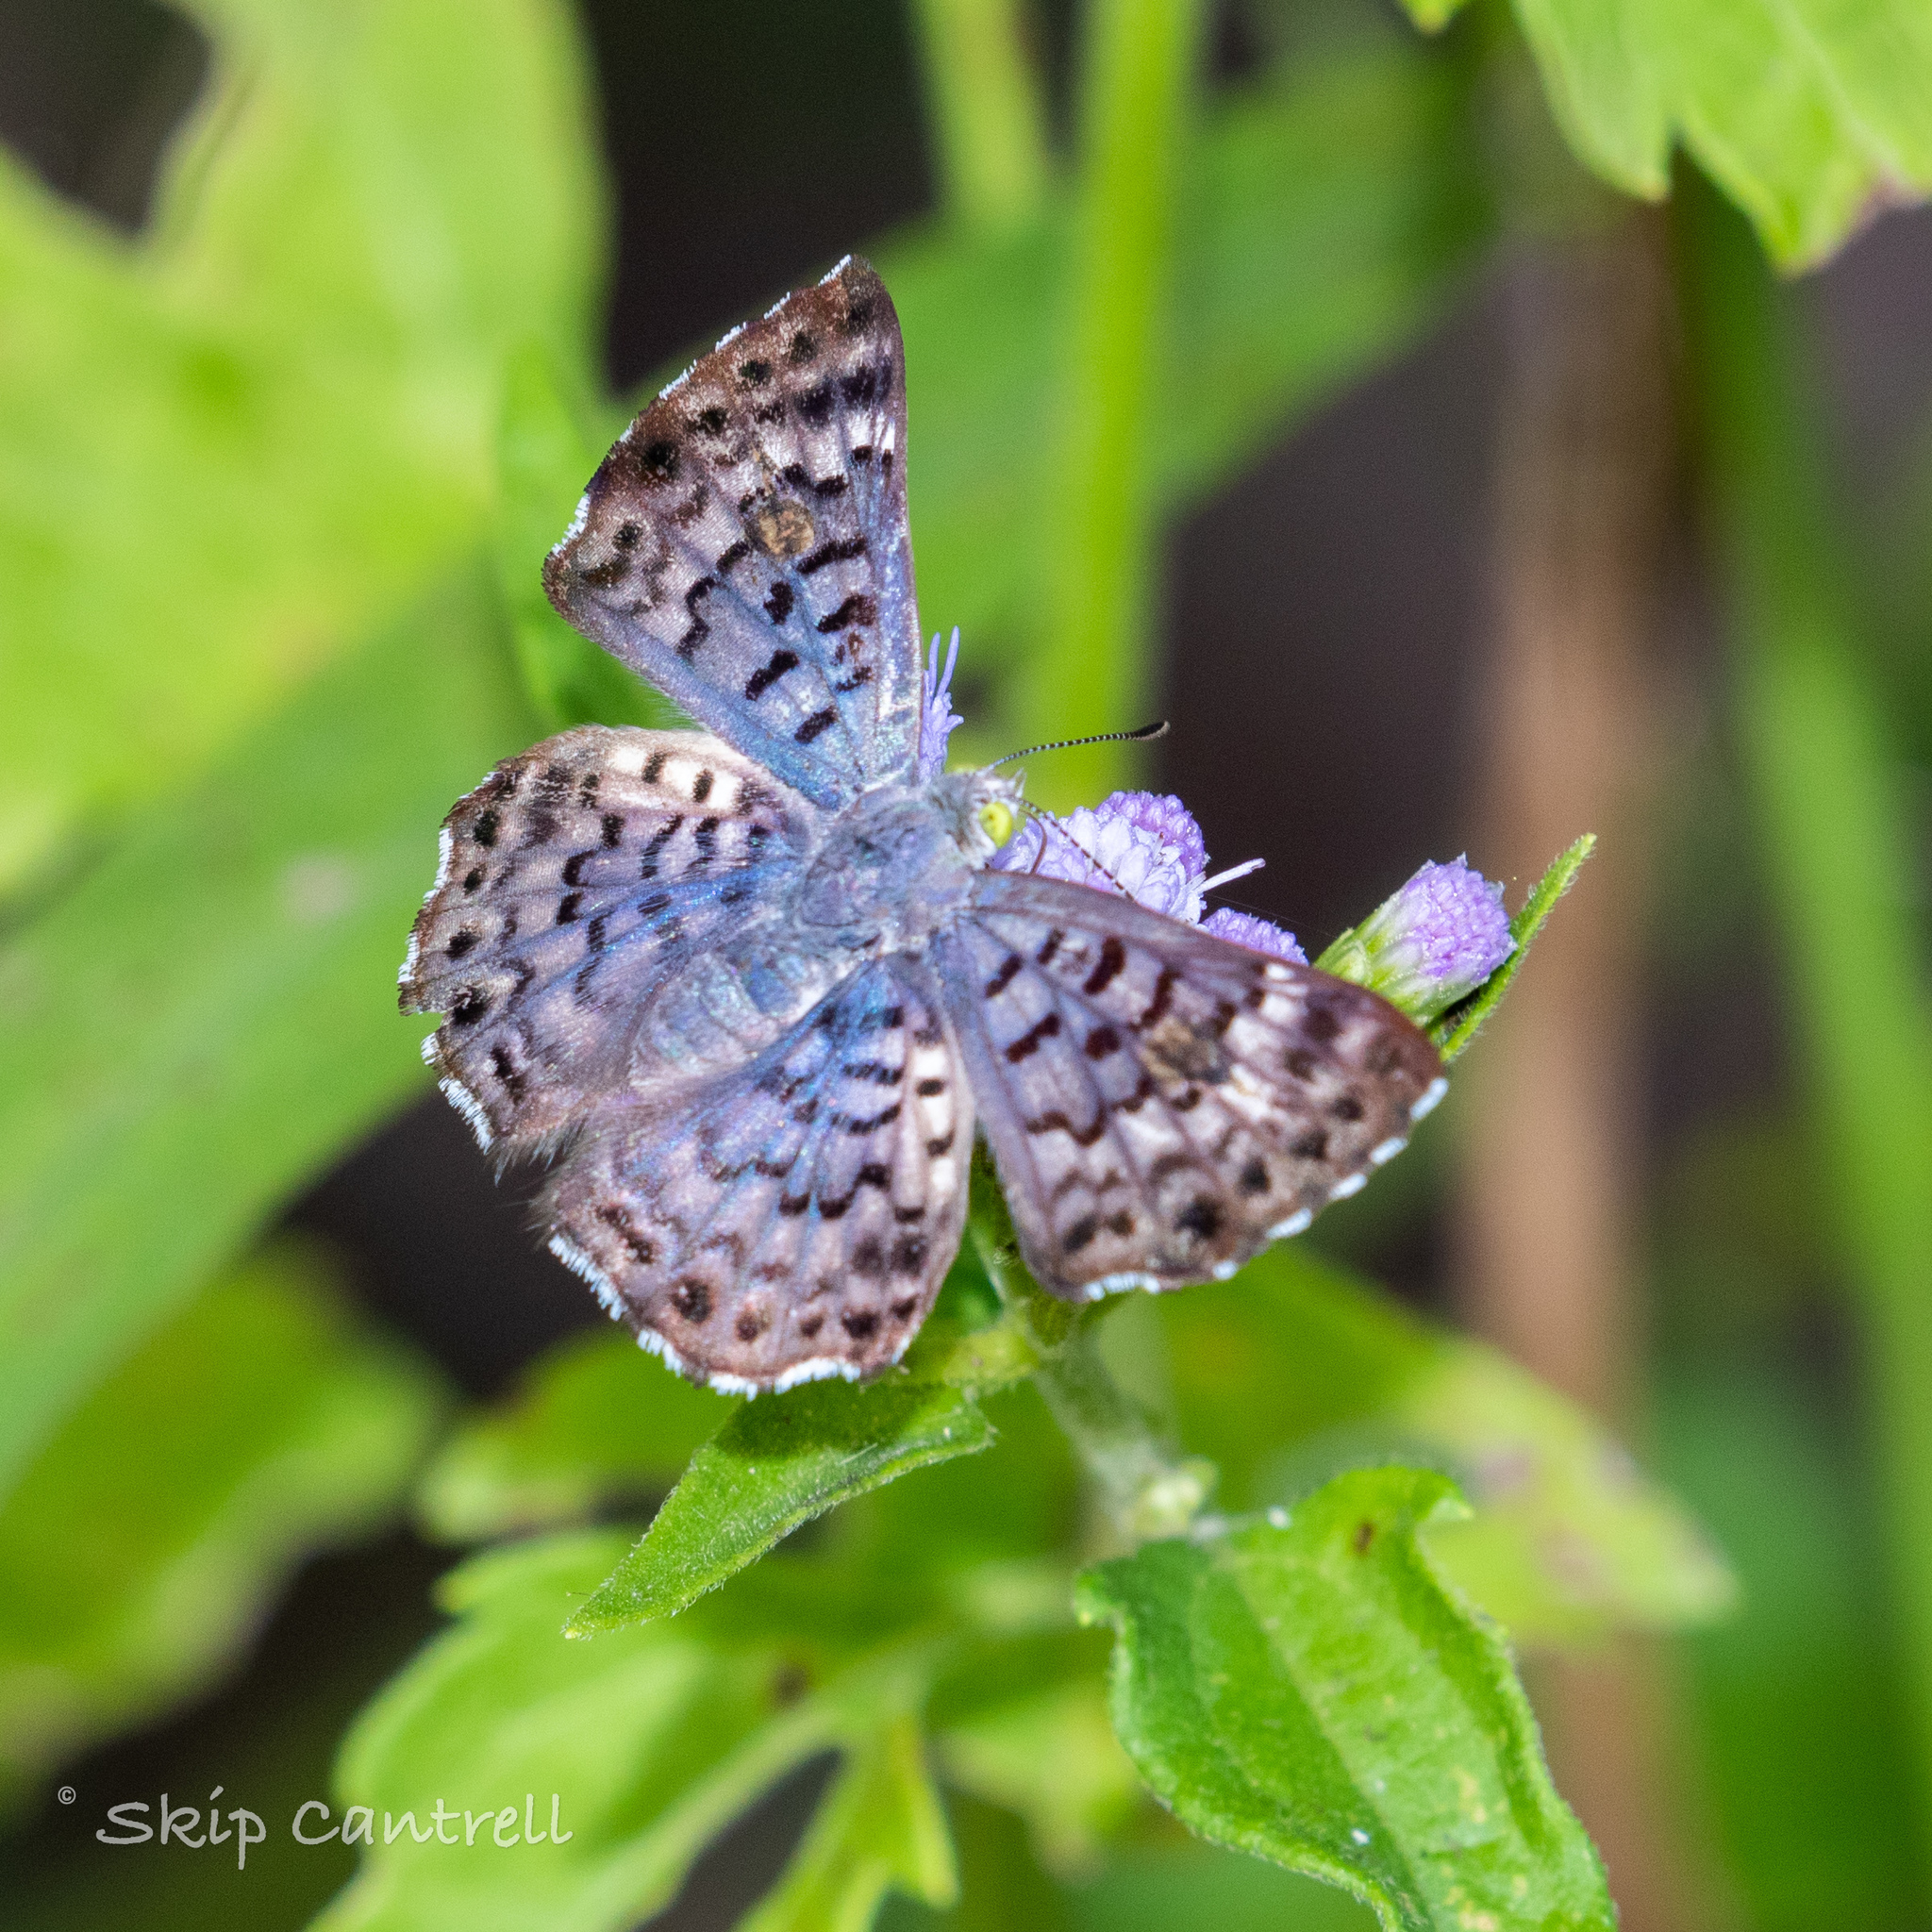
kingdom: Animalia
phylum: Arthropoda
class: Insecta
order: Lepidoptera
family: Riodinidae
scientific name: Riodinidae
